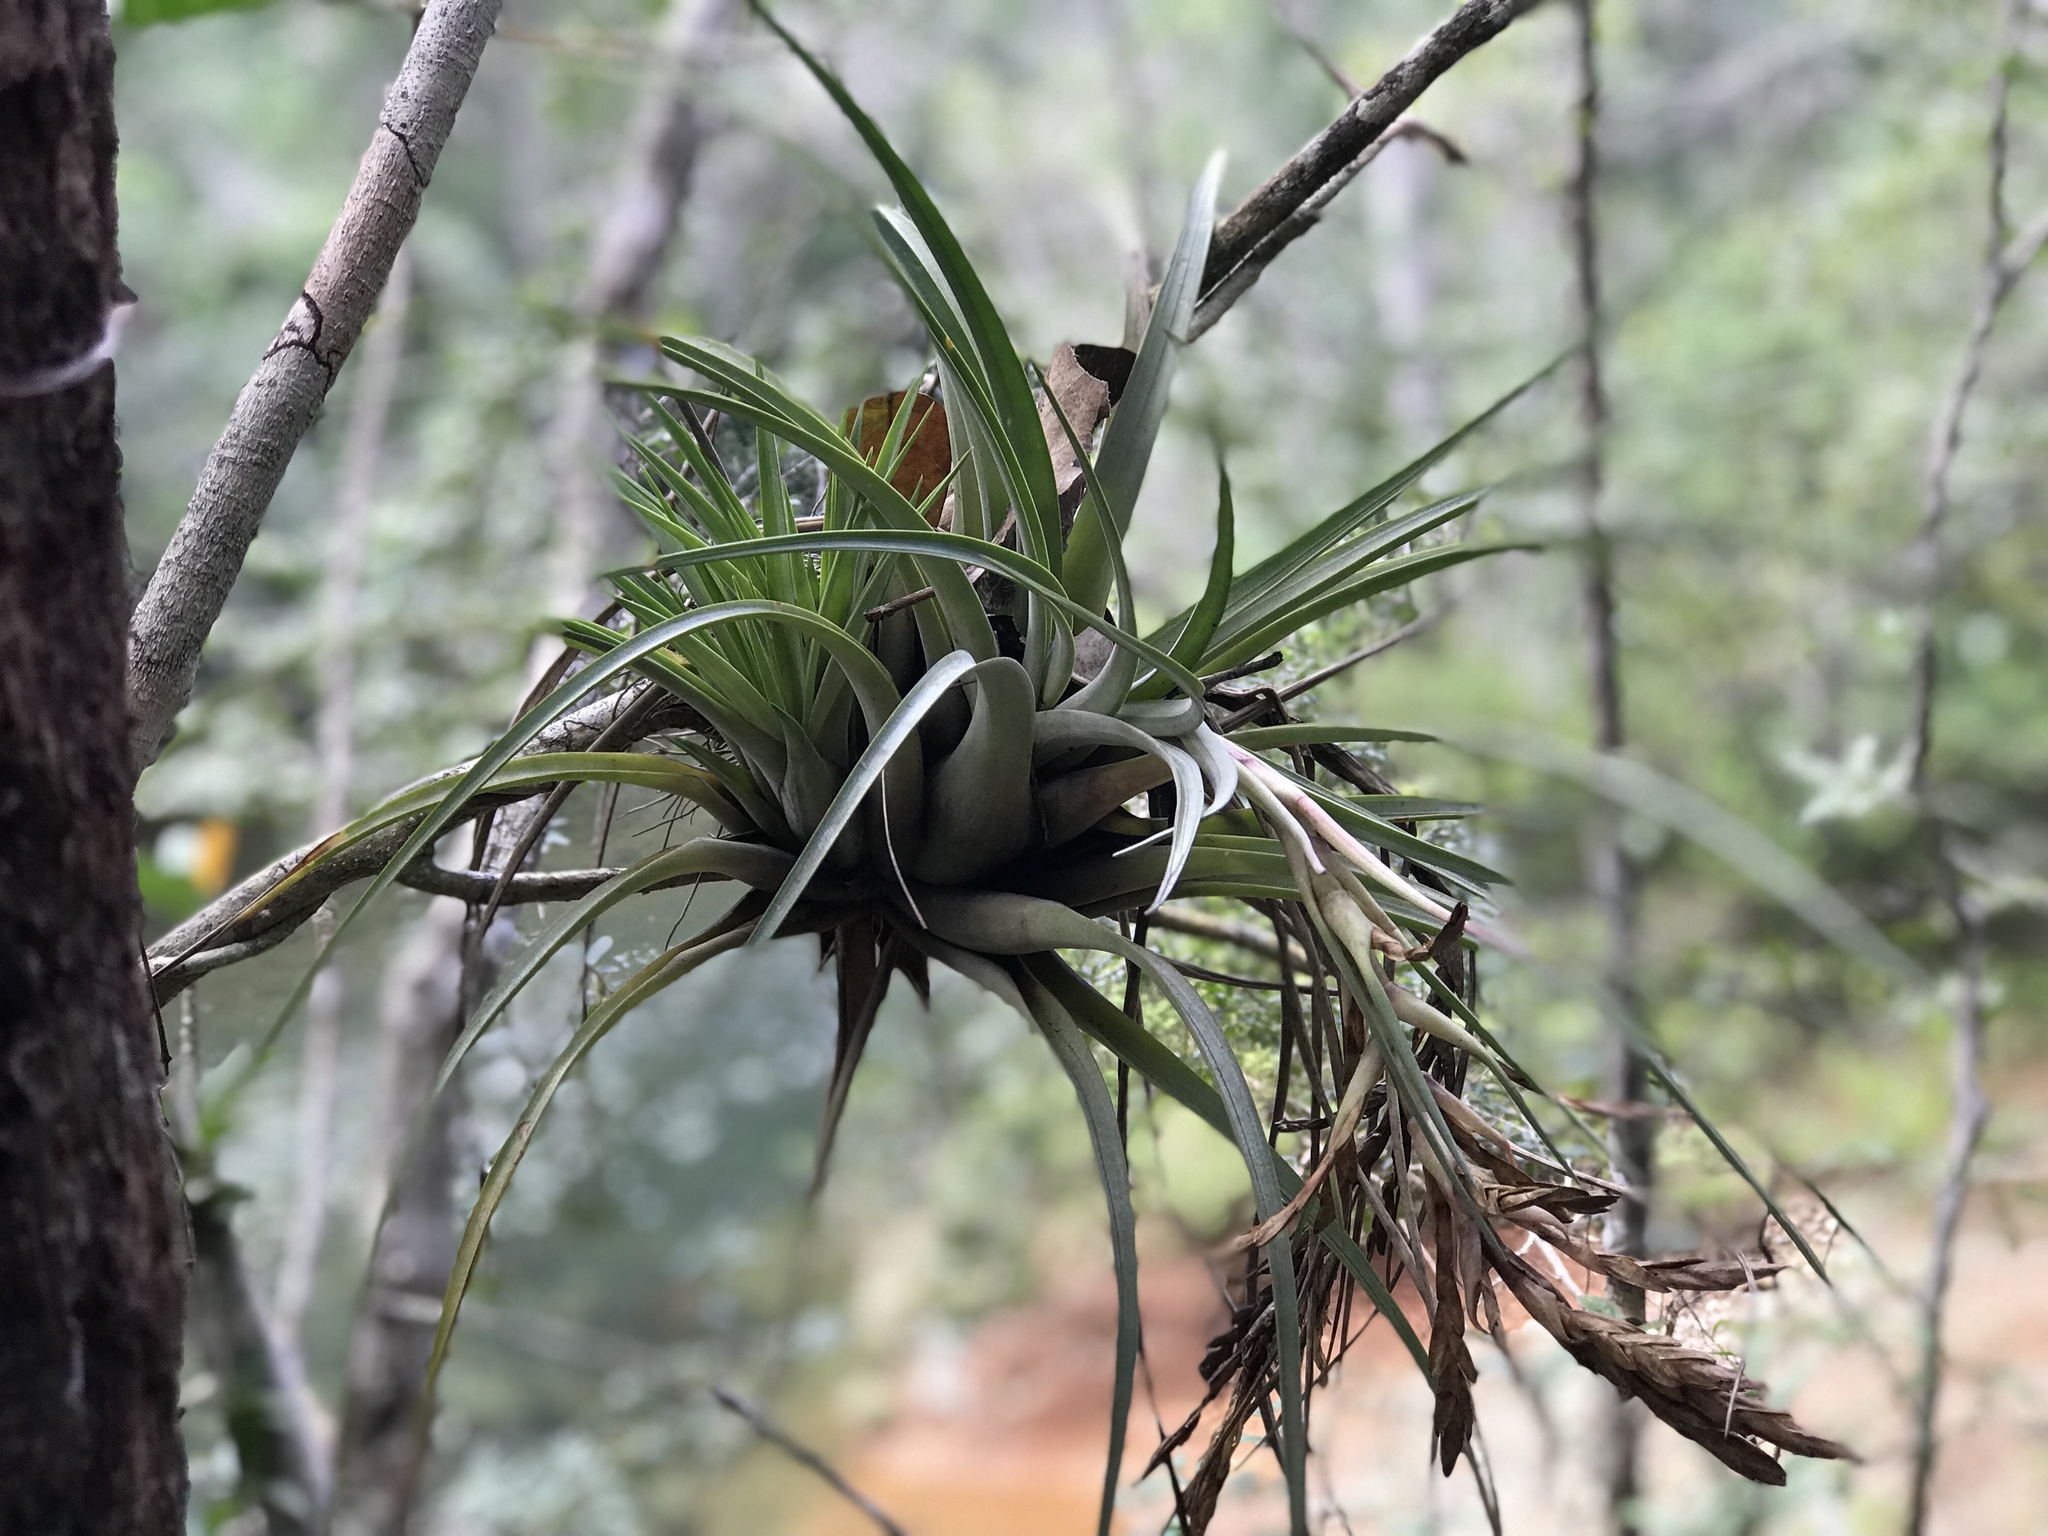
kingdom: Plantae
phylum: Tracheophyta
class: Liliopsida
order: Poales
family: Bromeliaceae
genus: Tillandsia
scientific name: Tillandsia fasciculata
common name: Giant airplant
